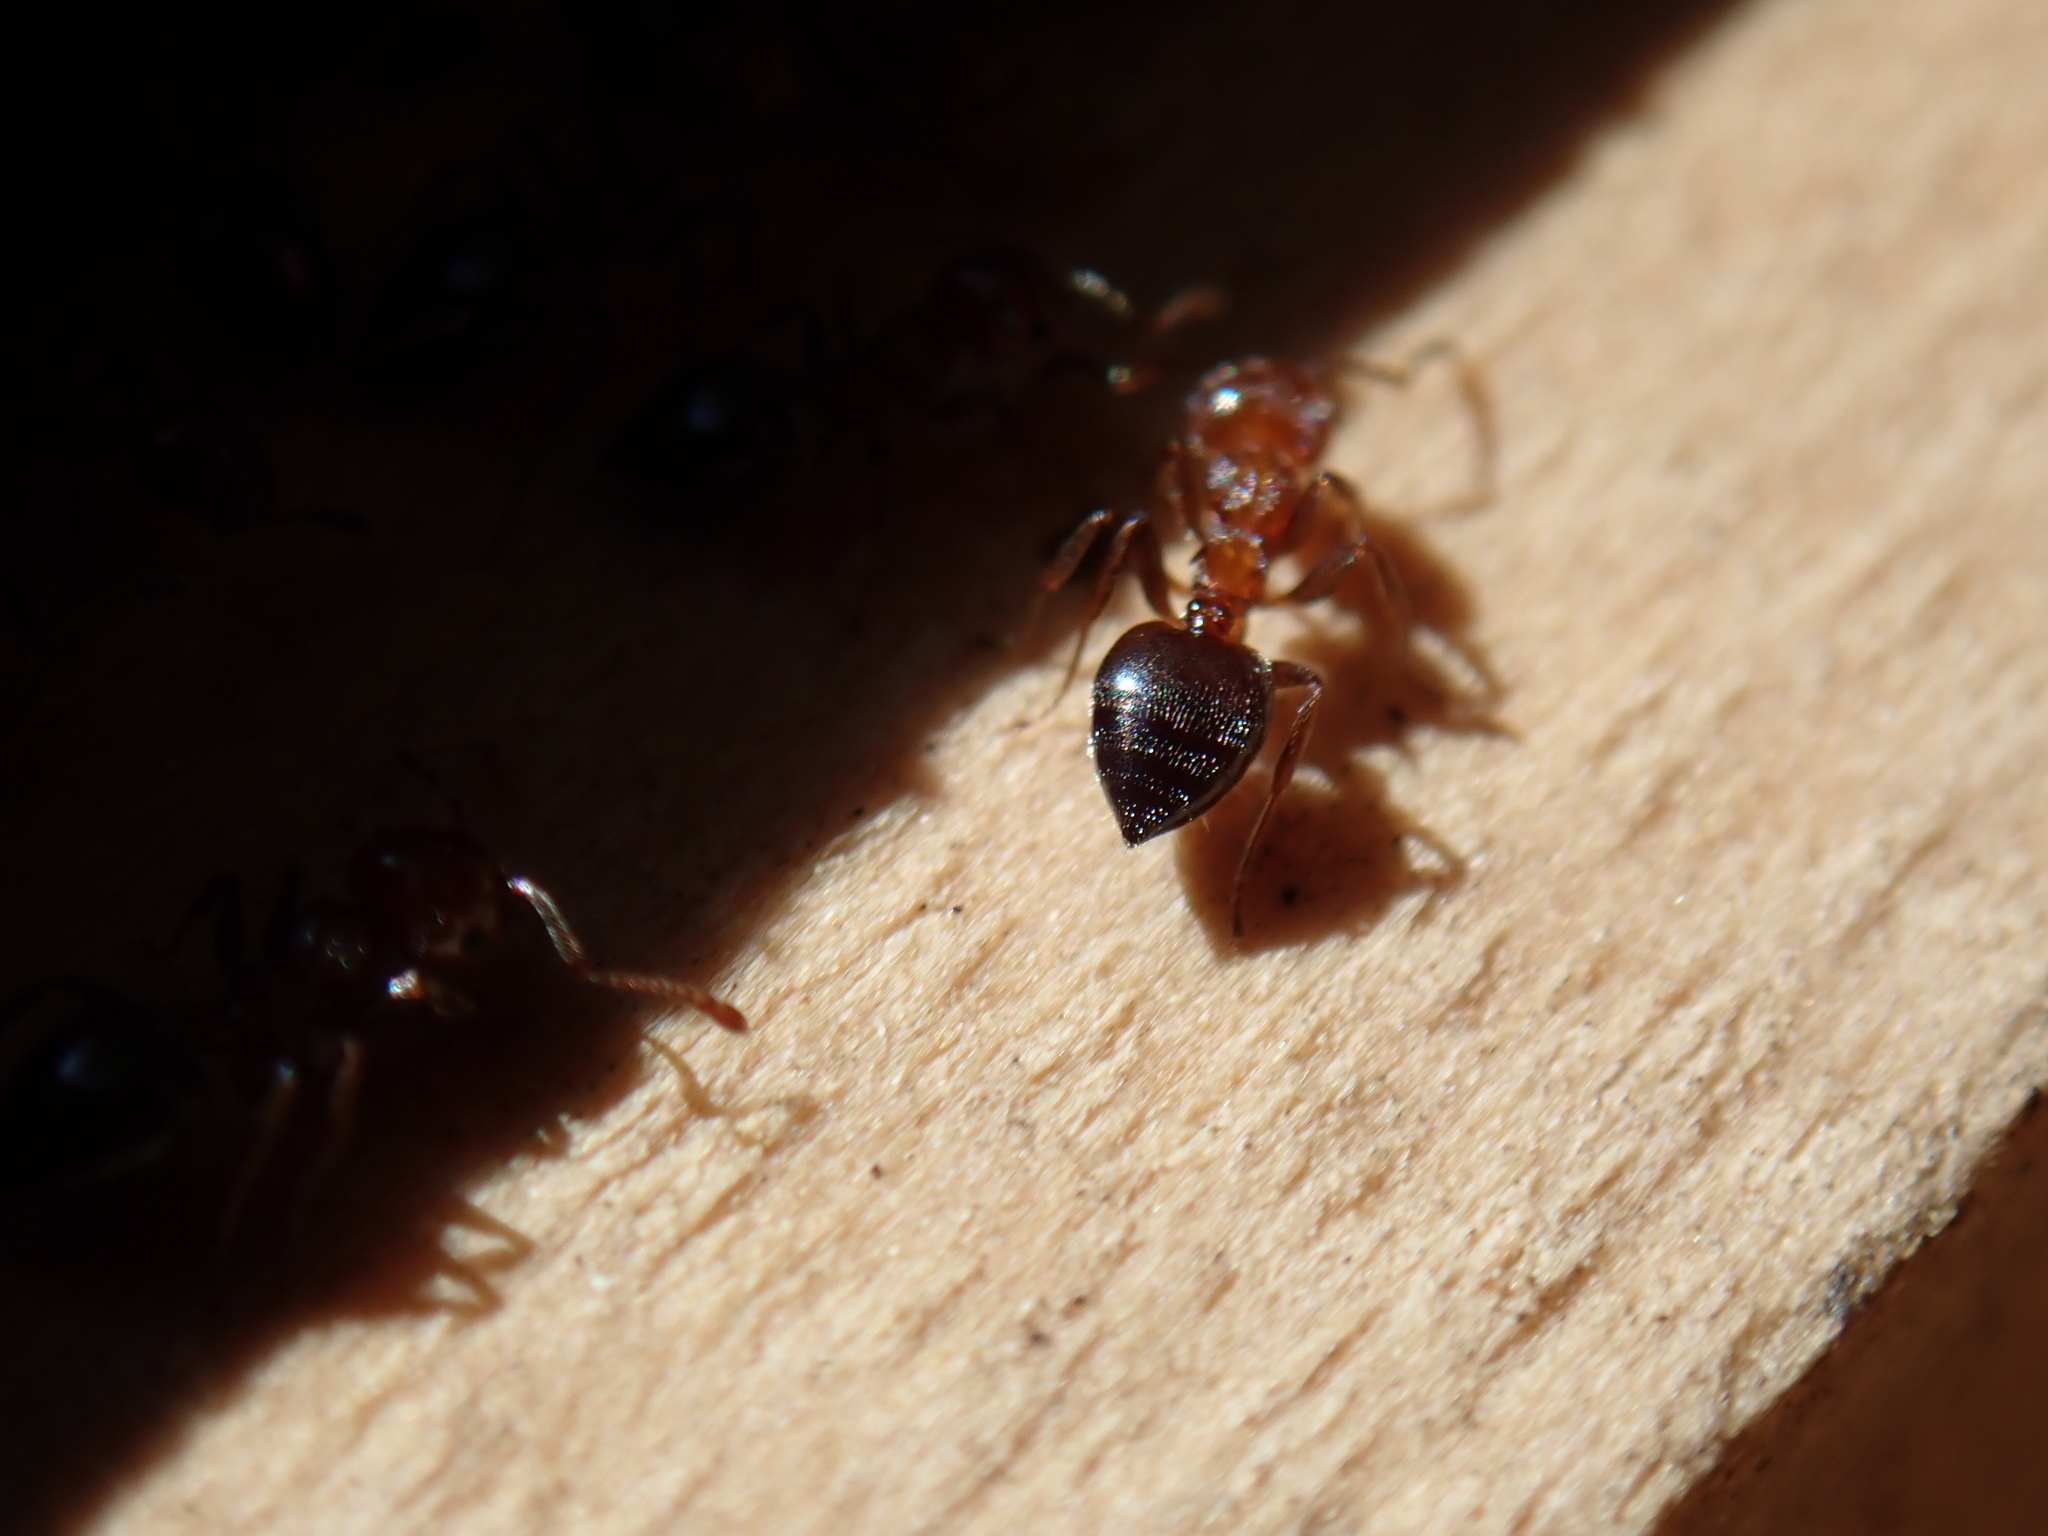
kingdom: Animalia
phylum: Arthropoda
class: Insecta
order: Hymenoptera
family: Formicidae
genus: Crematogaster
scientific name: Crematogaster schmidti
